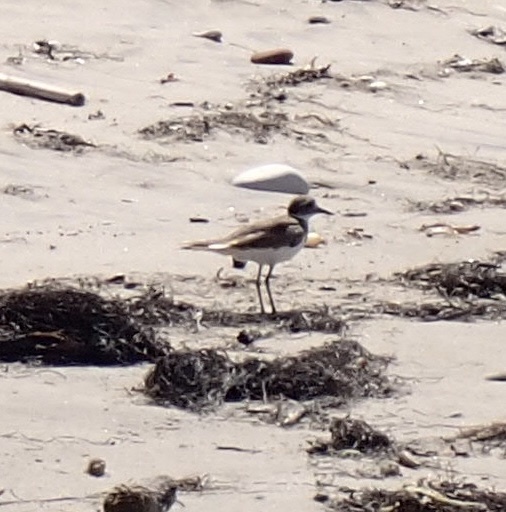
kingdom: Animalia
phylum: Chordata
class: Aves
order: Charadriiformes
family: Charadriidae
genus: Charadrius
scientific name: Charadrius vociferus
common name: Killdeer
